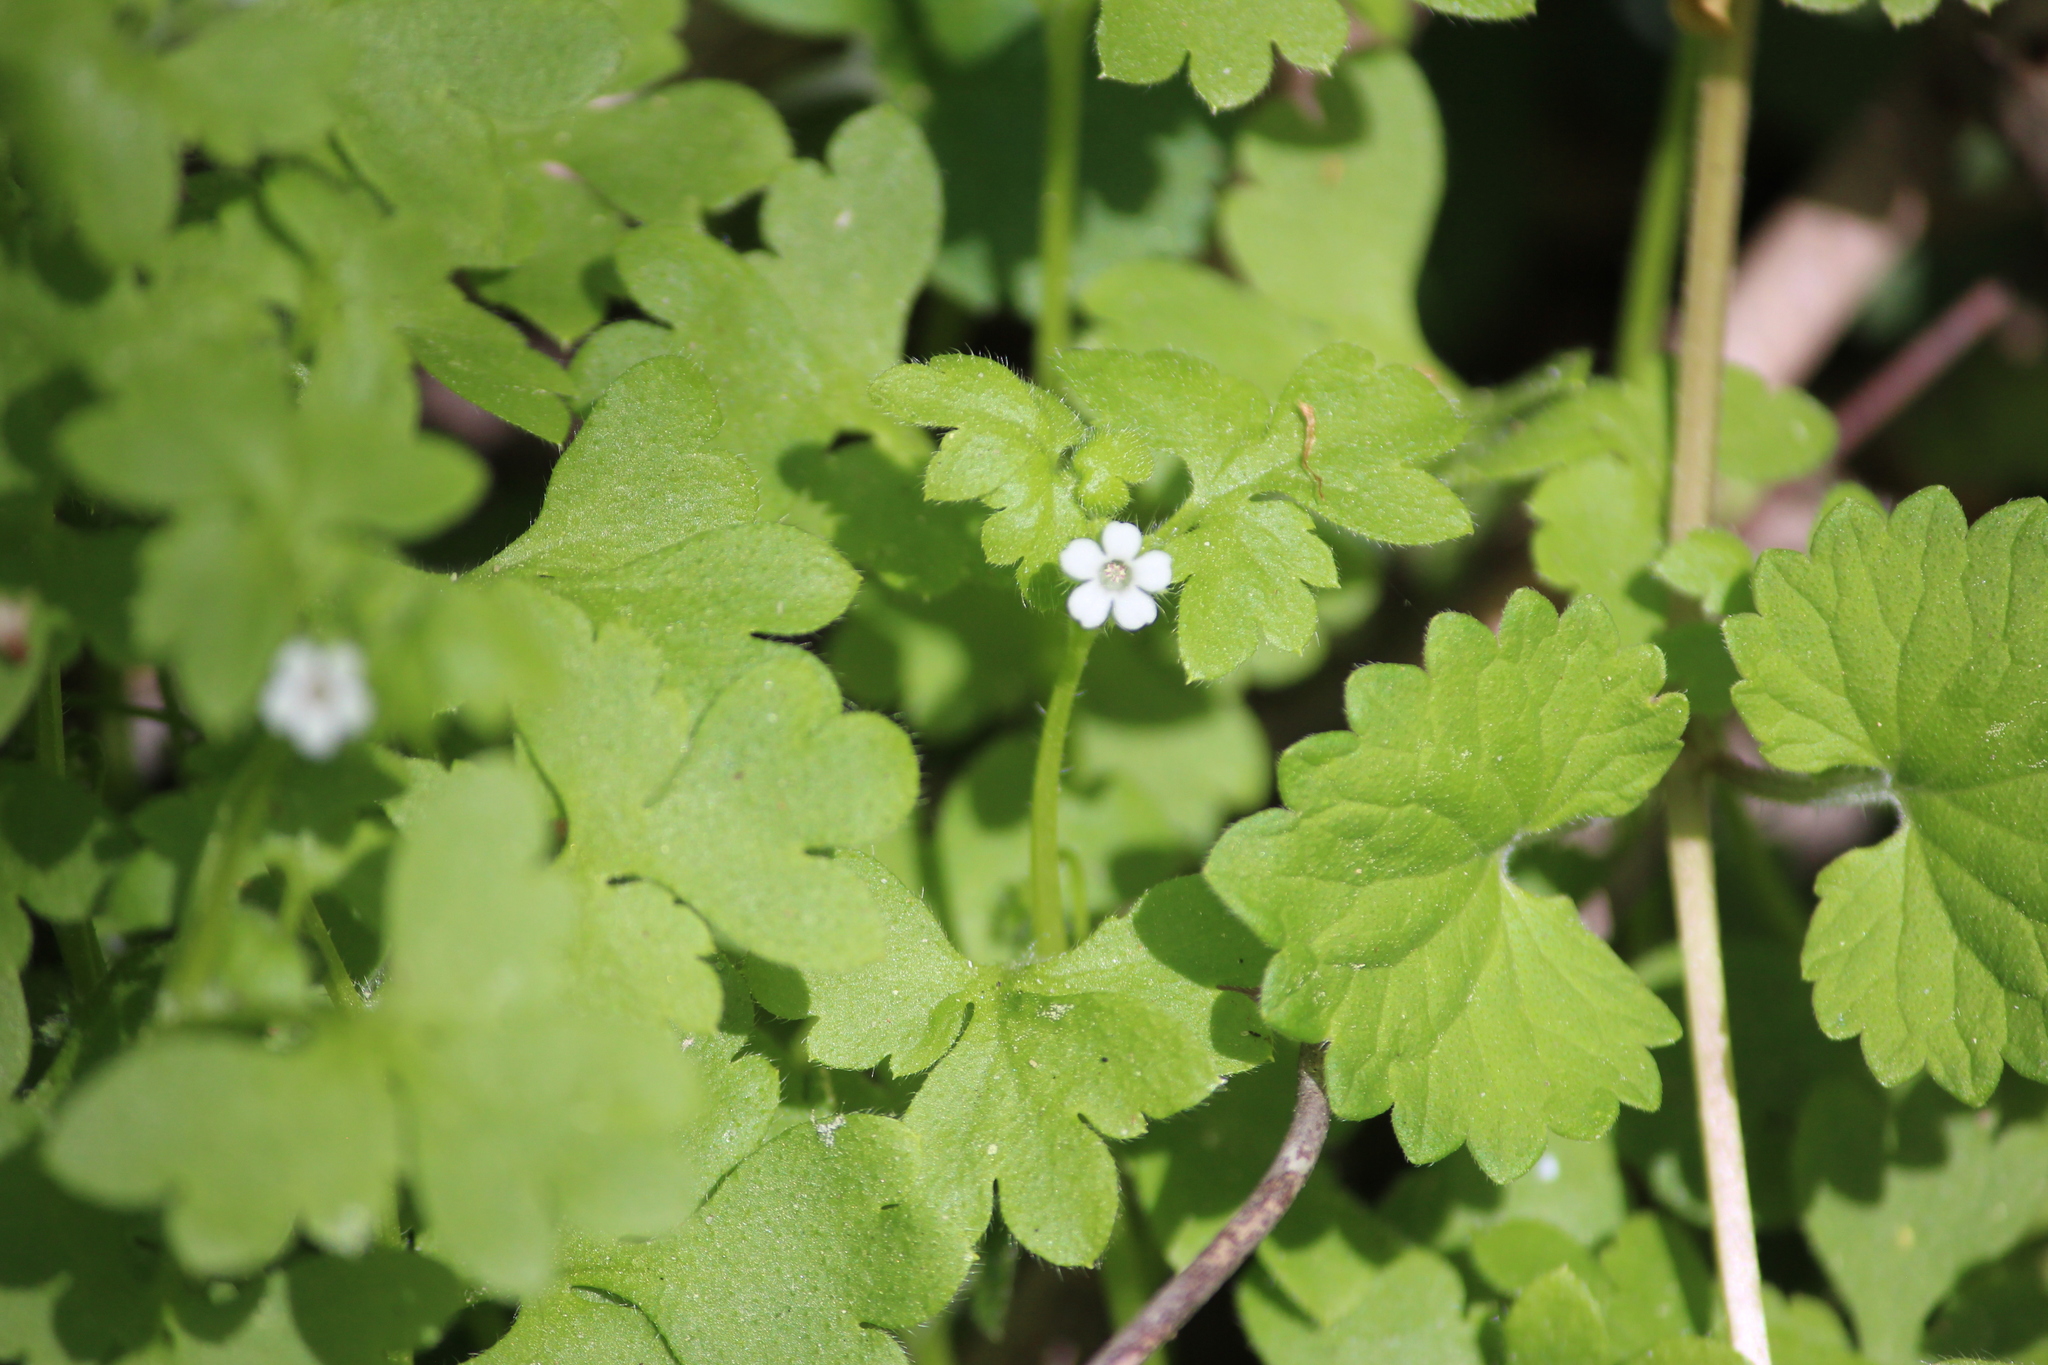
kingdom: Plantae
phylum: Tracheophyta
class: Magnoliopsida
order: Boraginales
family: Hydrophyllaceae
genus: Nemophila
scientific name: Nemophila aphylla
